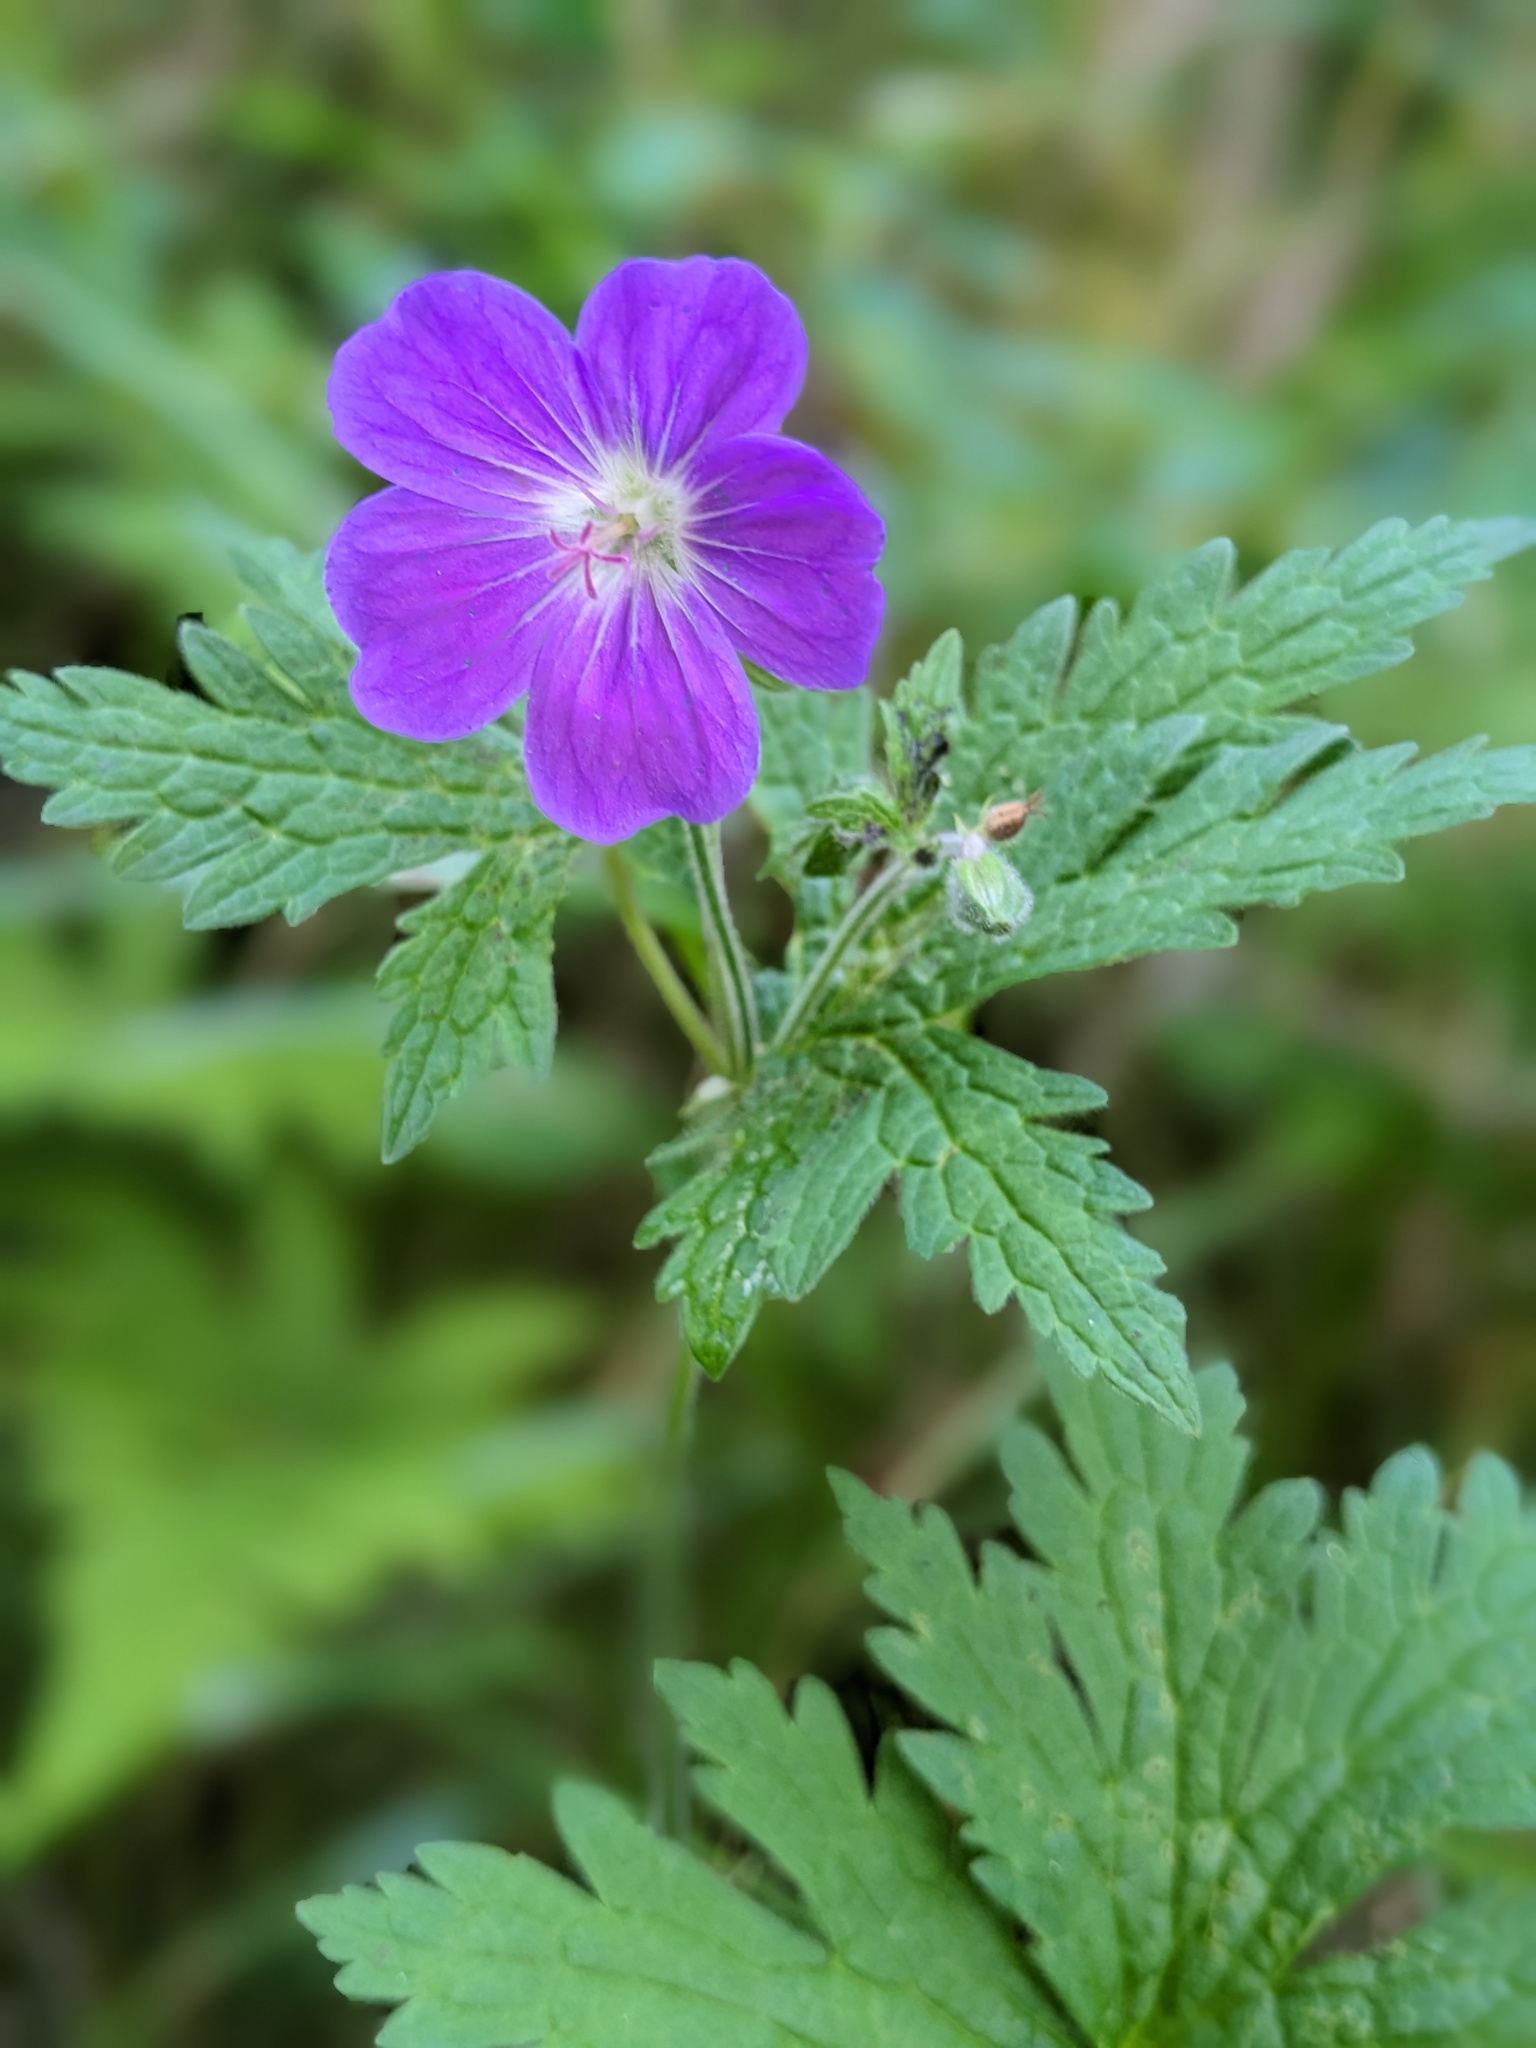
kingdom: Plantae
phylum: Tracheophyta
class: Magnoliopsida
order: Geraniales
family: Geraniaceae
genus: Geranium
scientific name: Geranium sylvaticum
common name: Wood crane's-bill
